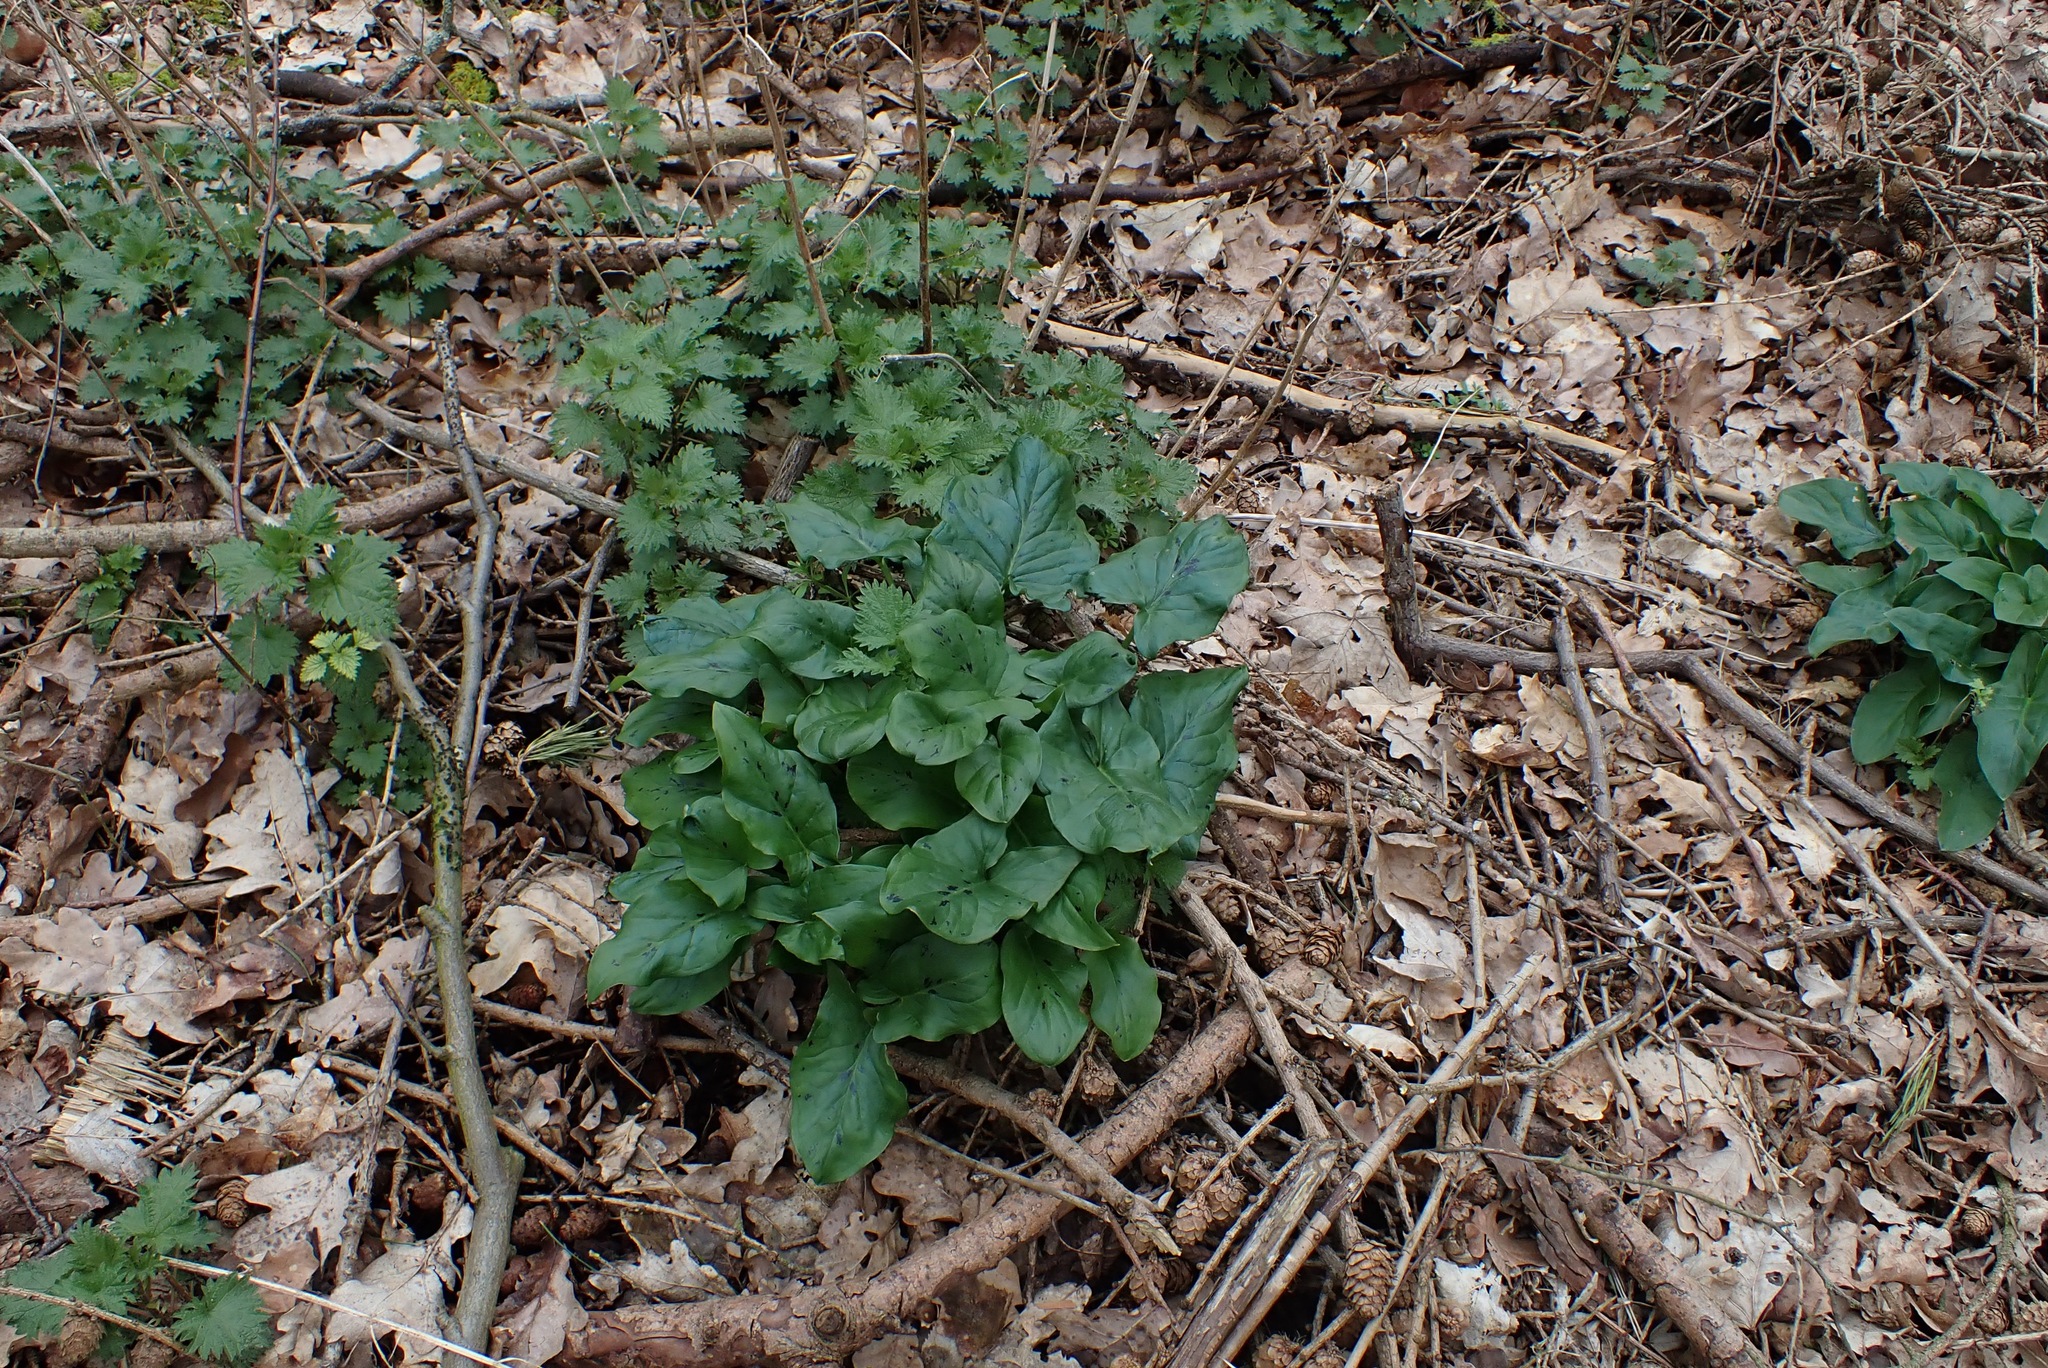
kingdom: Plantae
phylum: Tracheophyta
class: Liliopsida
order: Alismatales
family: Araceae
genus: Arum
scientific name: Arum maculatum
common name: Lords-and-ladies
